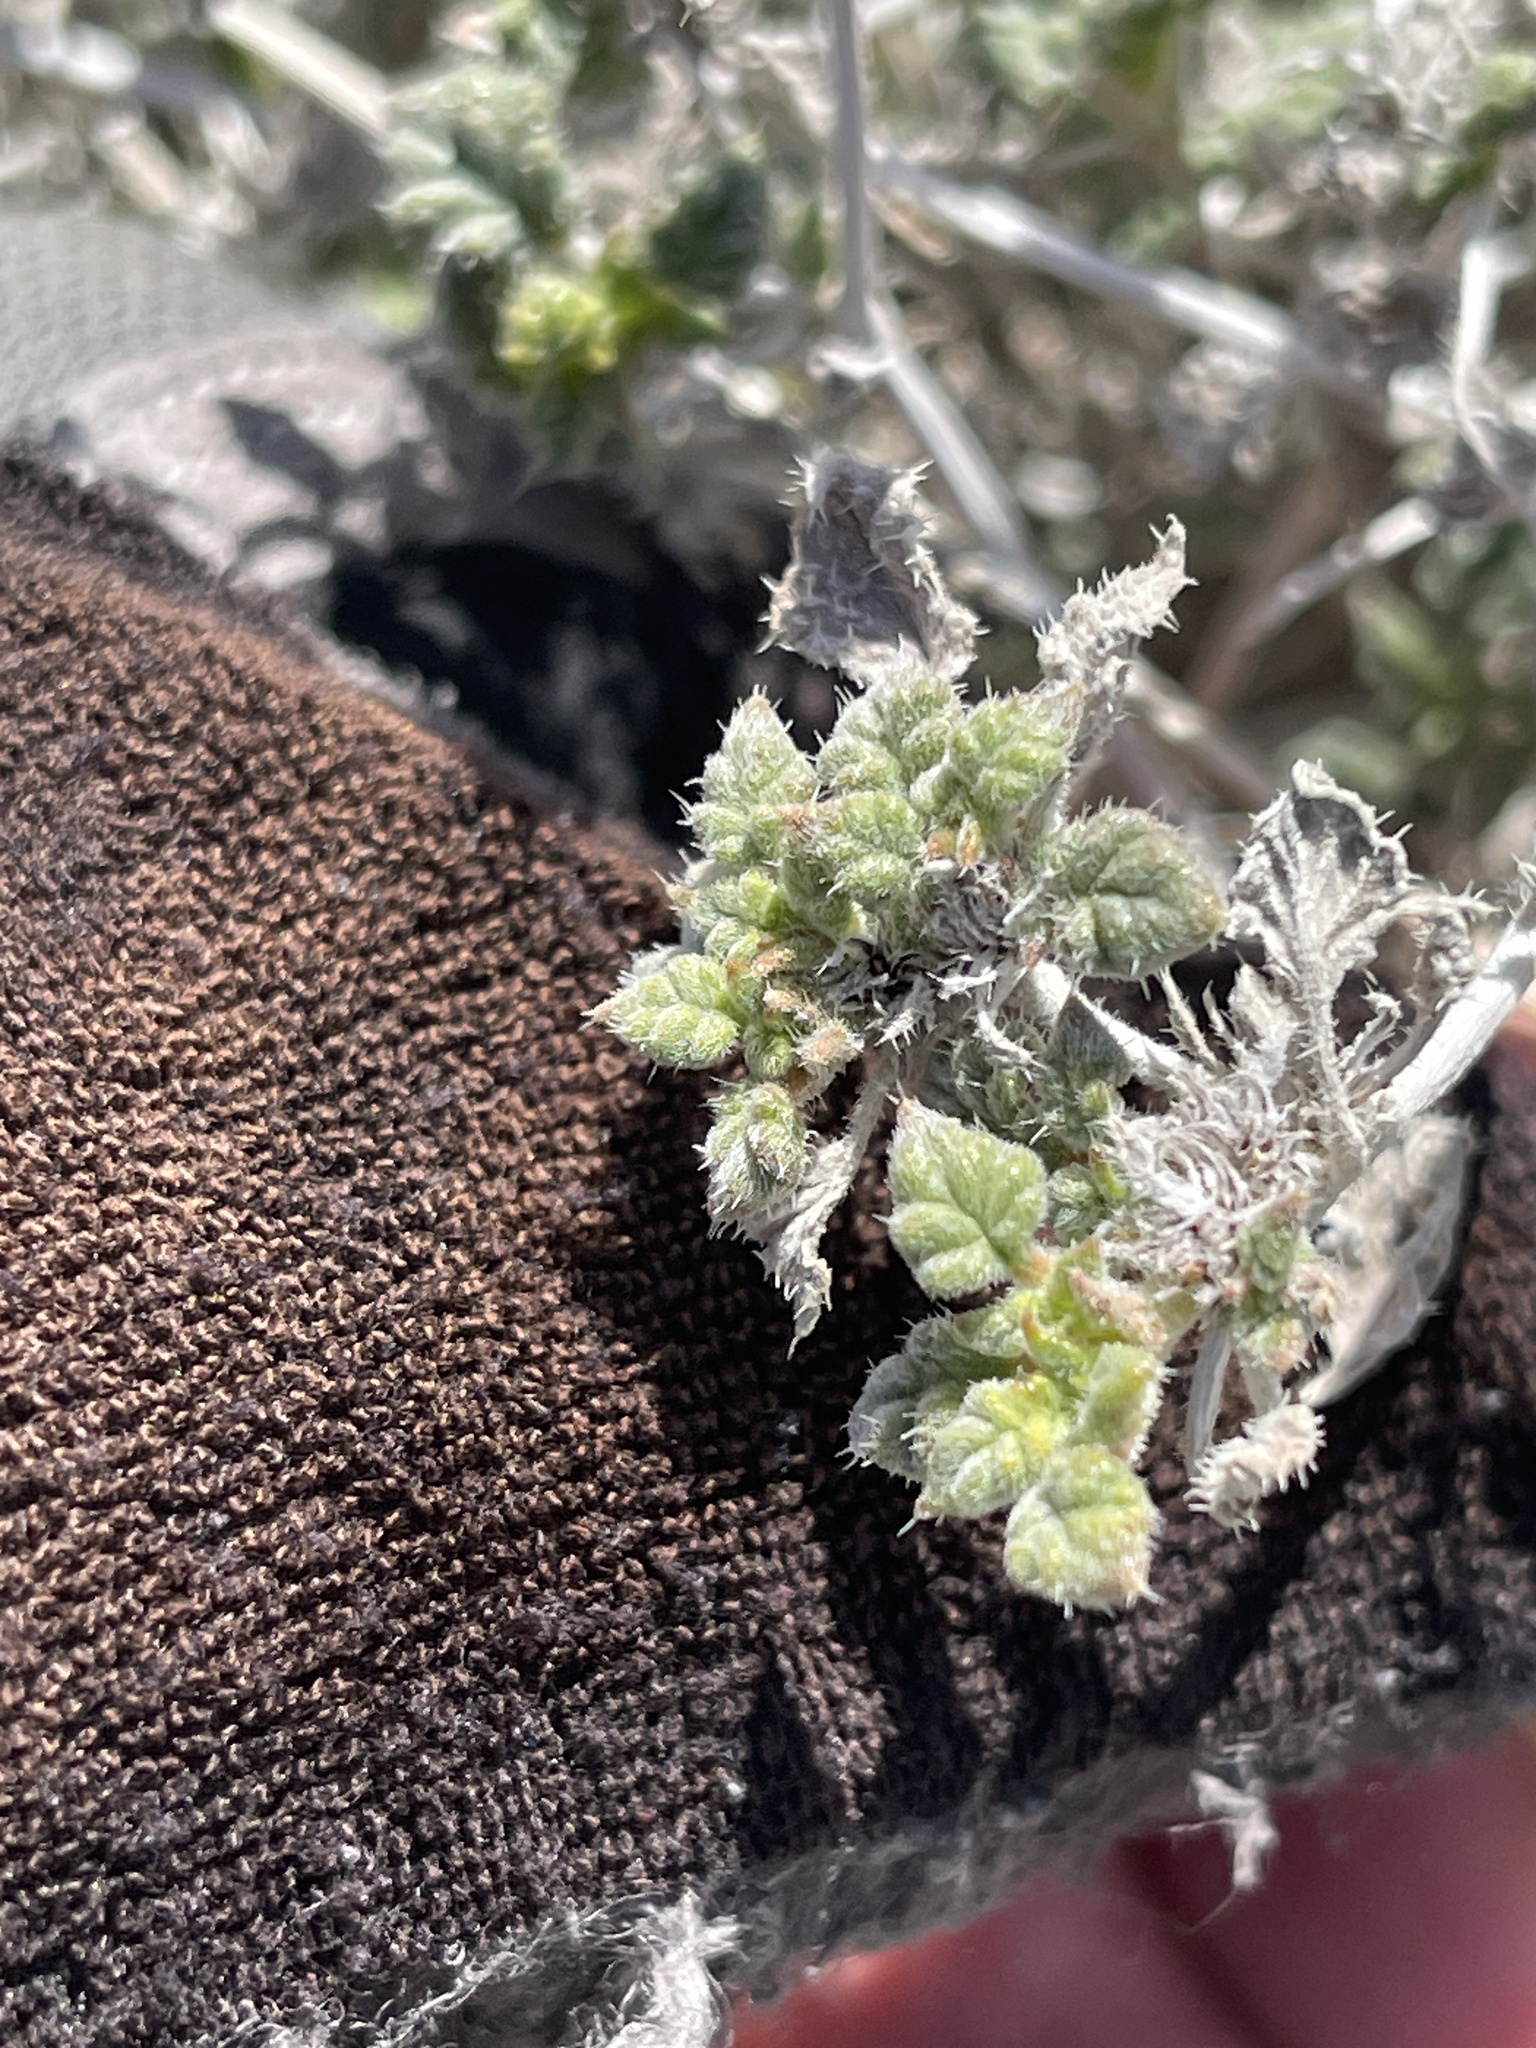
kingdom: Plantae
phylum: Tracheophyta
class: Magnoliopsida
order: Boraginales
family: Ehretiaceae
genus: Tiquilia
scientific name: Tiquilia palmeri
